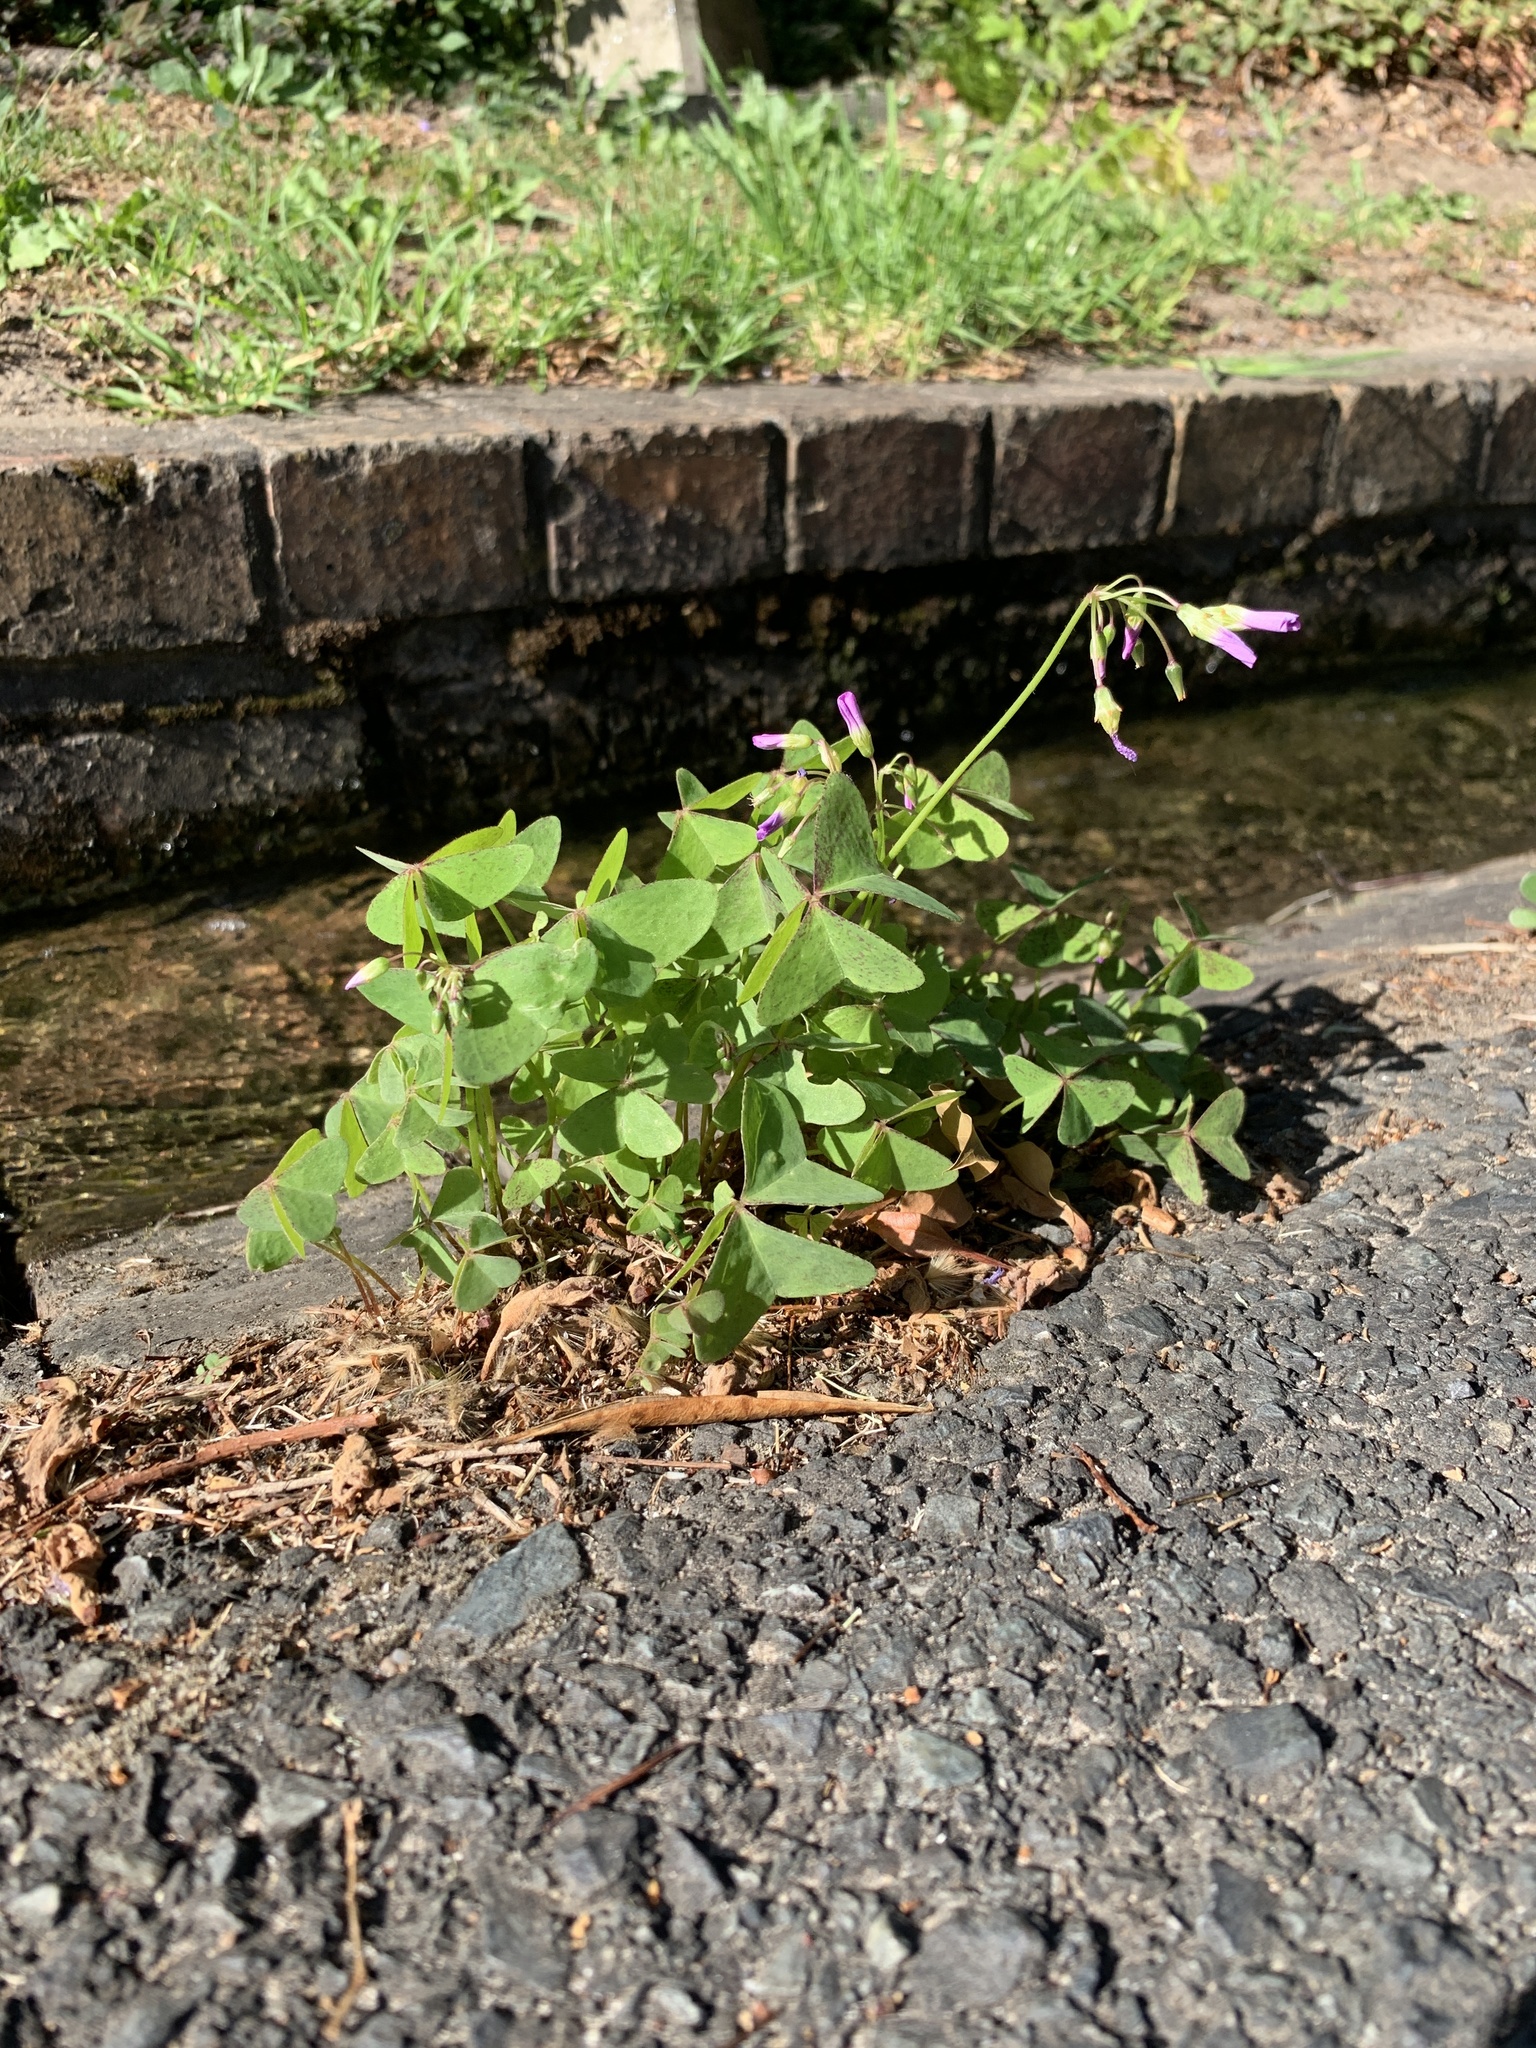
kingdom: Plantae
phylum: Tracheophyta
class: Magnoliopsida
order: Oxalidales
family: Oxalidaceae
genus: Oxalis
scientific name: Oxalis latifolia
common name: Garden pink-sorrel
